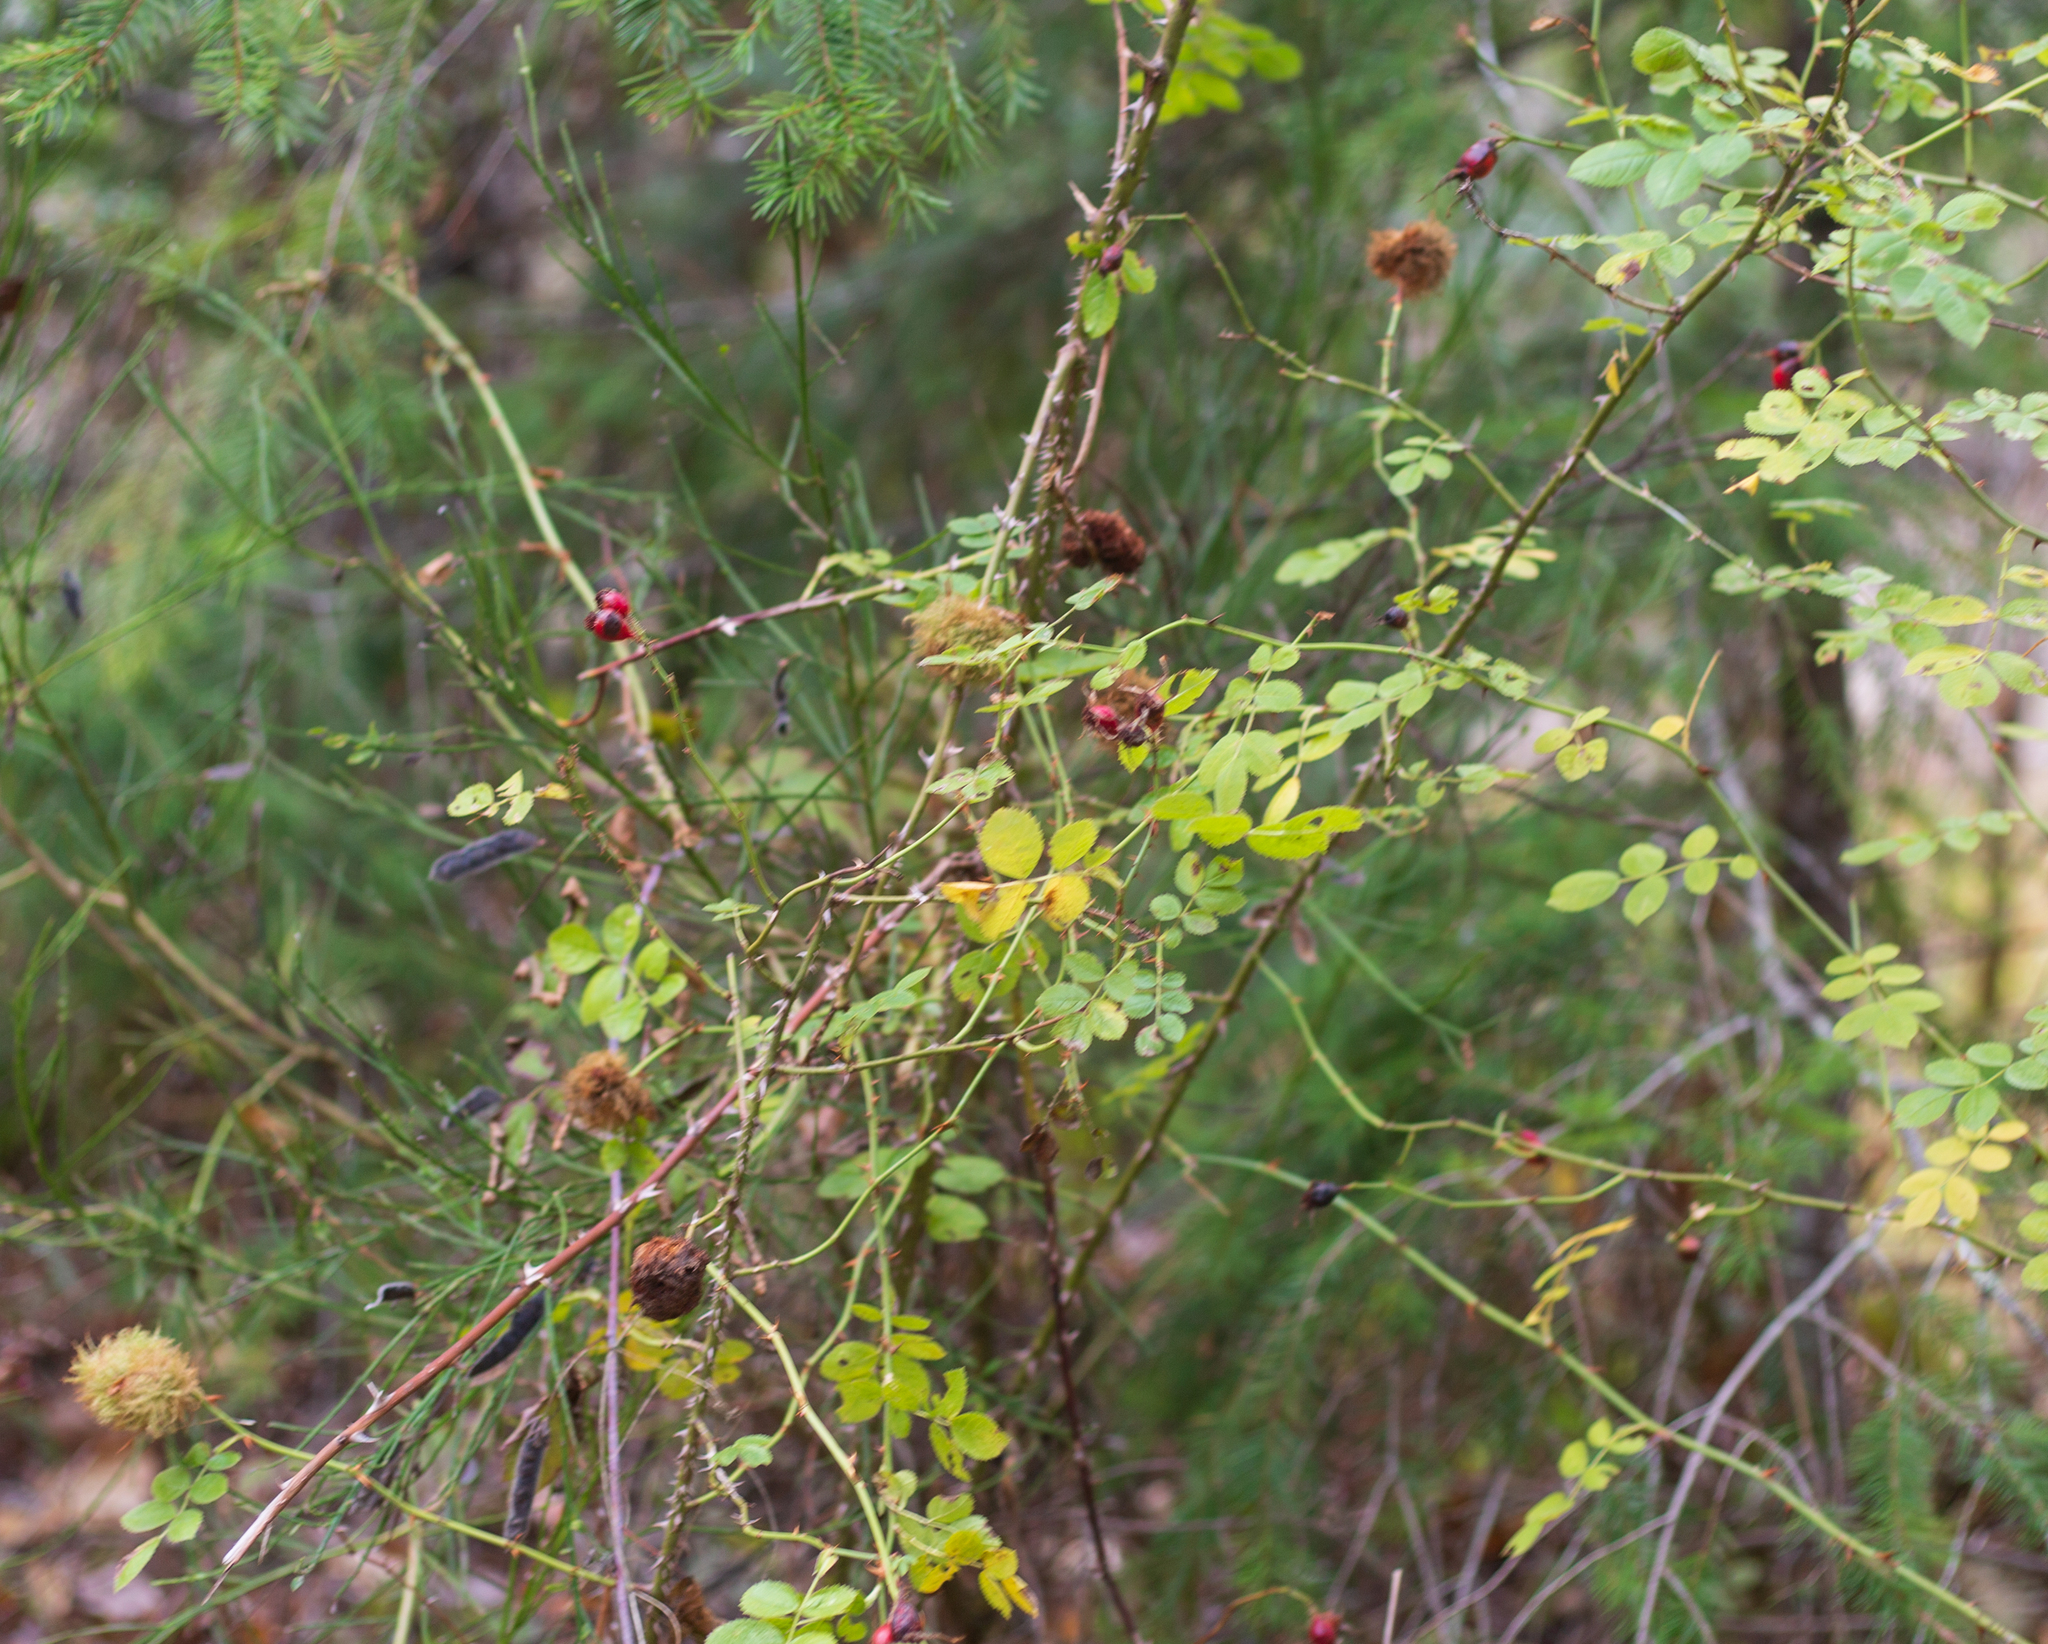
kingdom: Animalia
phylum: Arthropoda
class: Insecta
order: Hymenoptera
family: Cynipidae
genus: Diplolepis
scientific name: Diplolepis rosae
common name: Bedeguar gall
